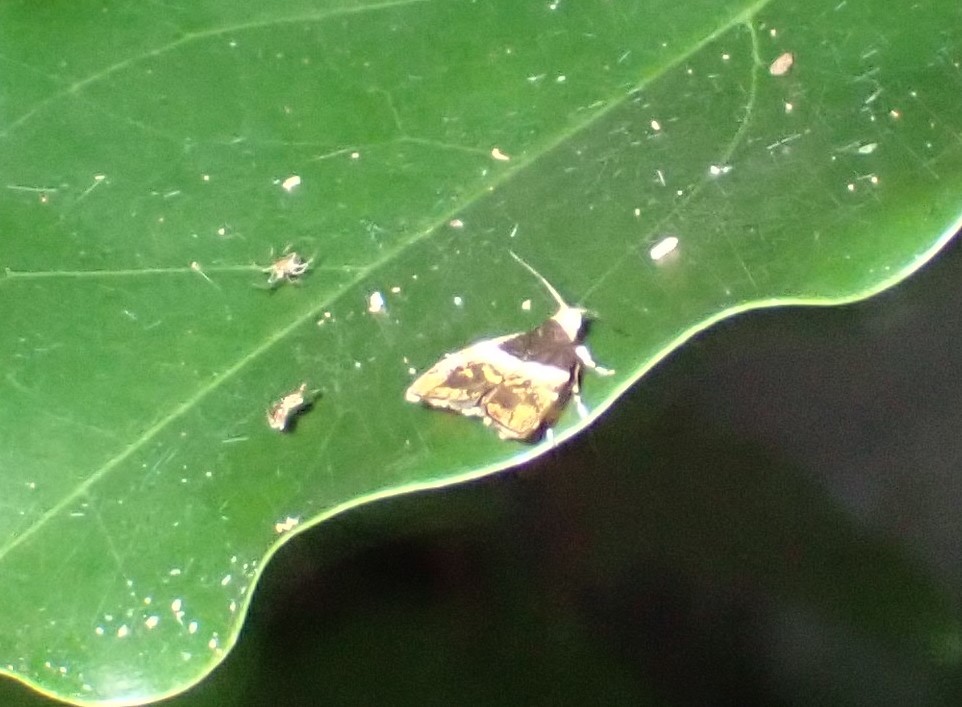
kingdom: Animalia
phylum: Arthropoda
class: Insecta
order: Lepidoptera
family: Choreutidae
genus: Choreutis
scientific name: Choreutis argyroxantha
